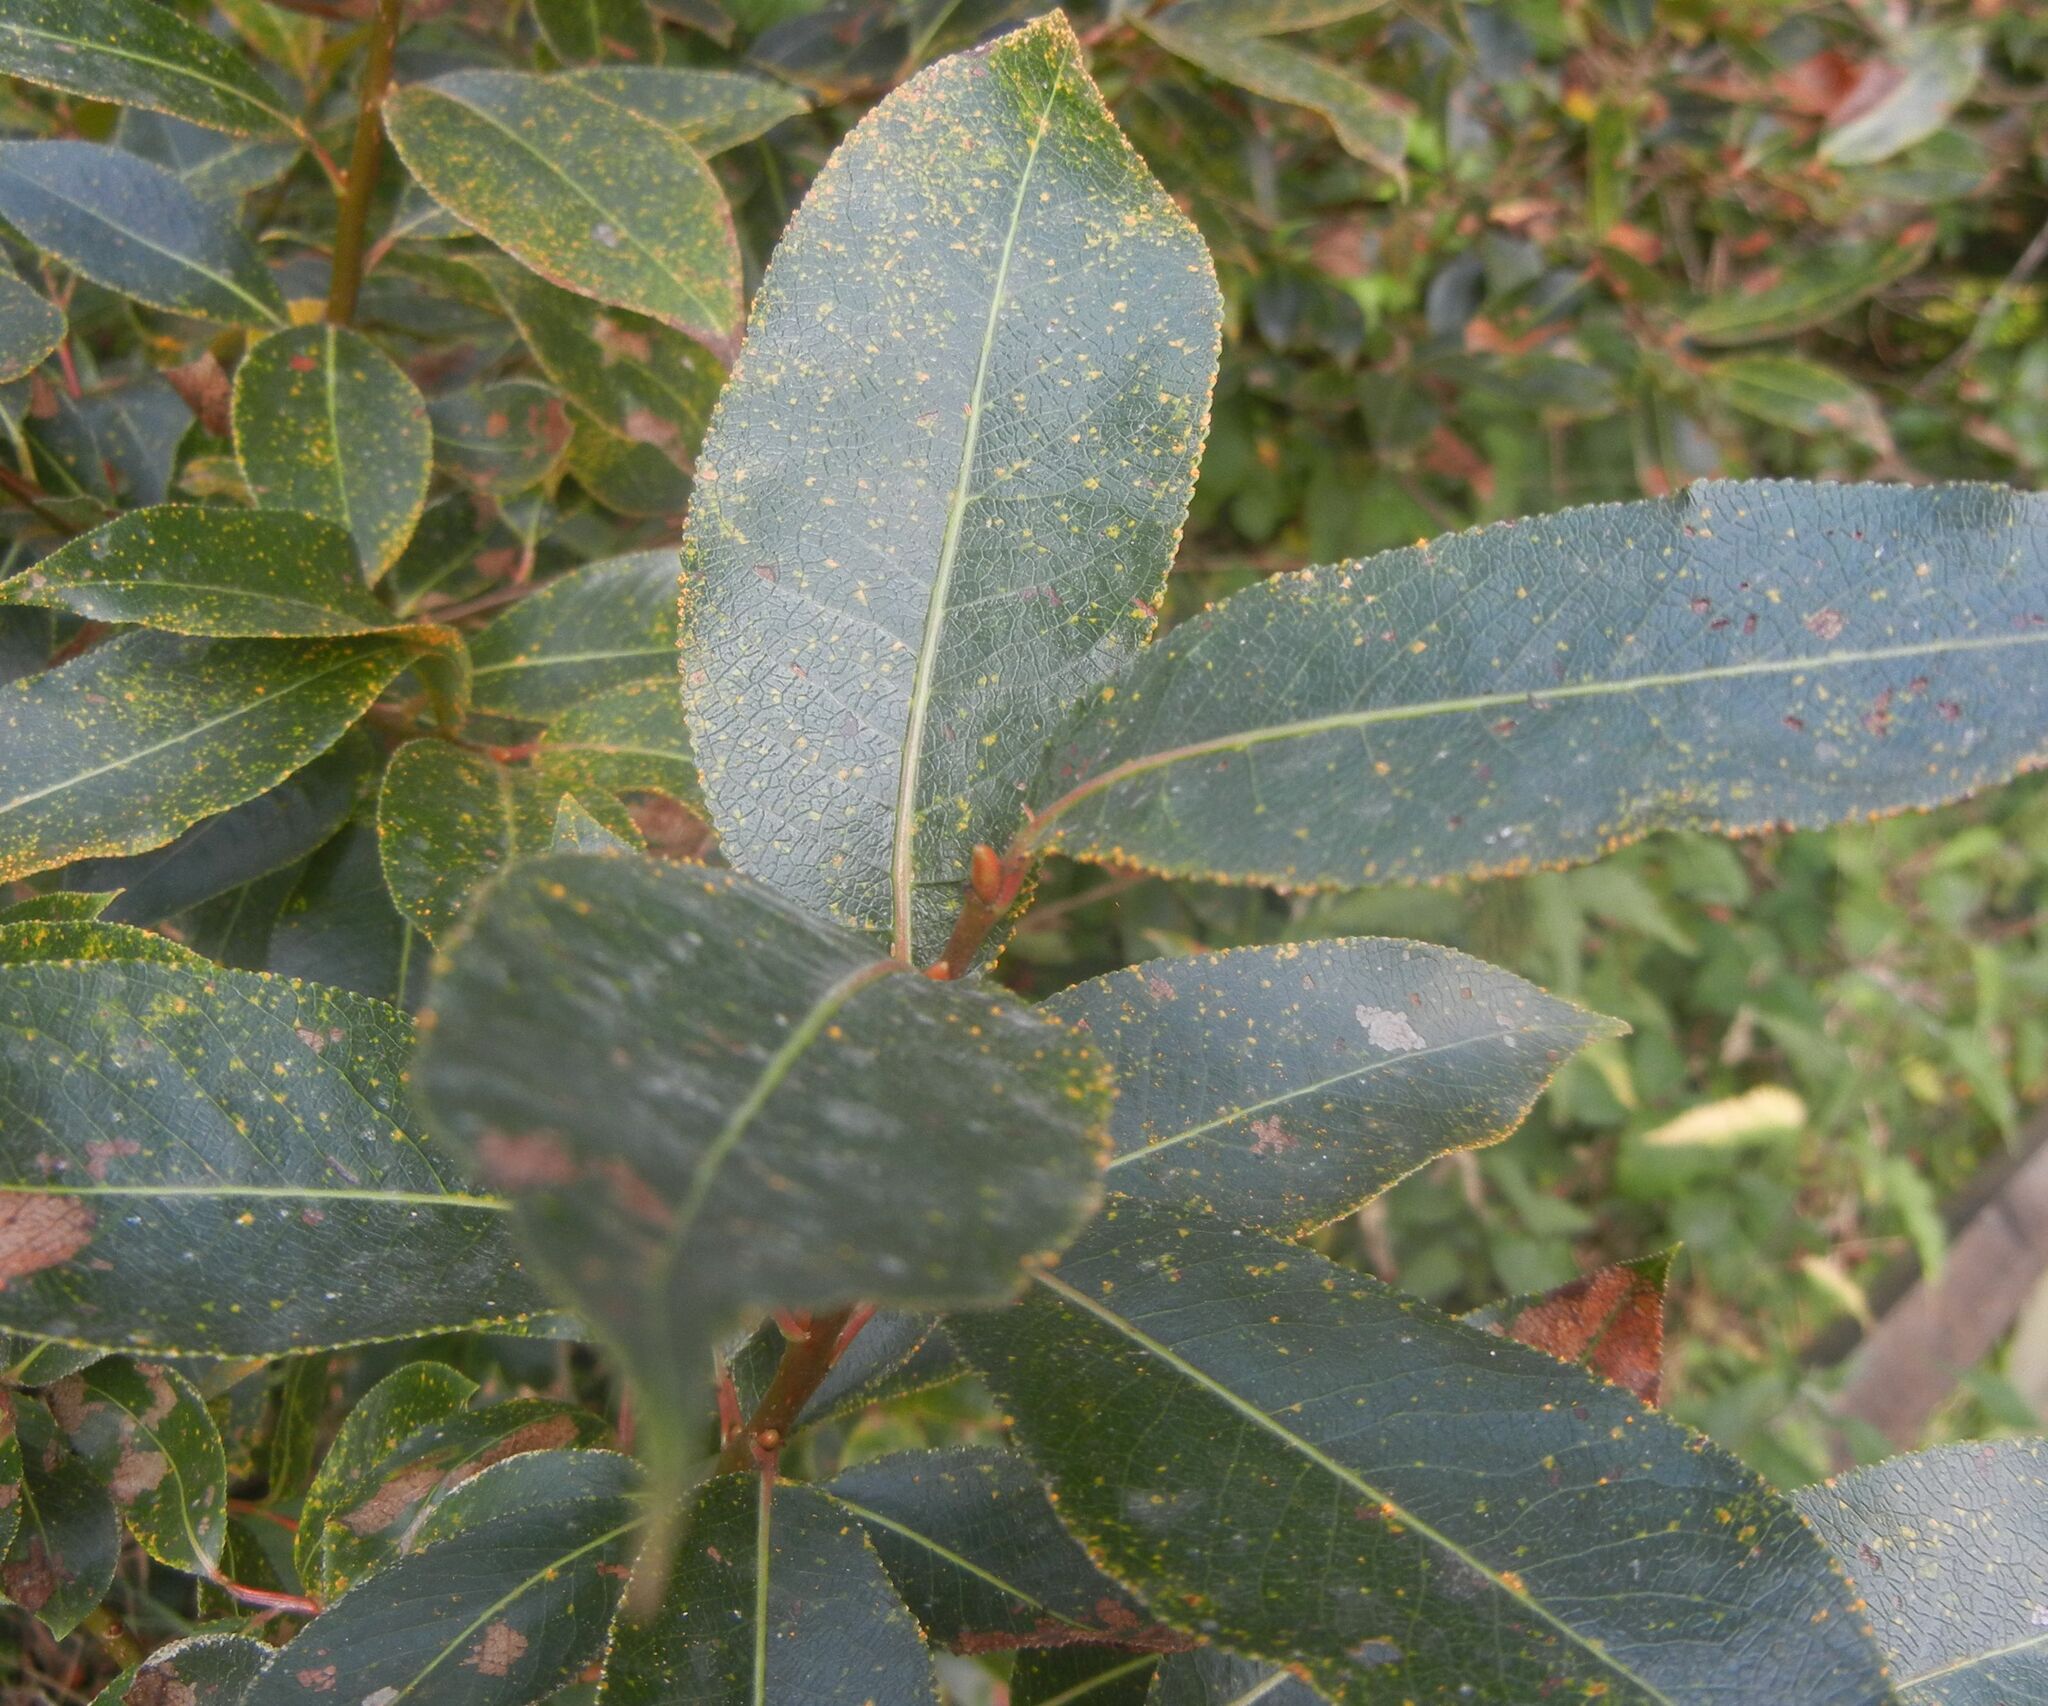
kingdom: Plantae
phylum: Tracheophyta
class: Magnoliopsida
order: Malpighiales
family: Salicaceae
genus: Salix
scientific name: Salix pentandra
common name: Bay willow
